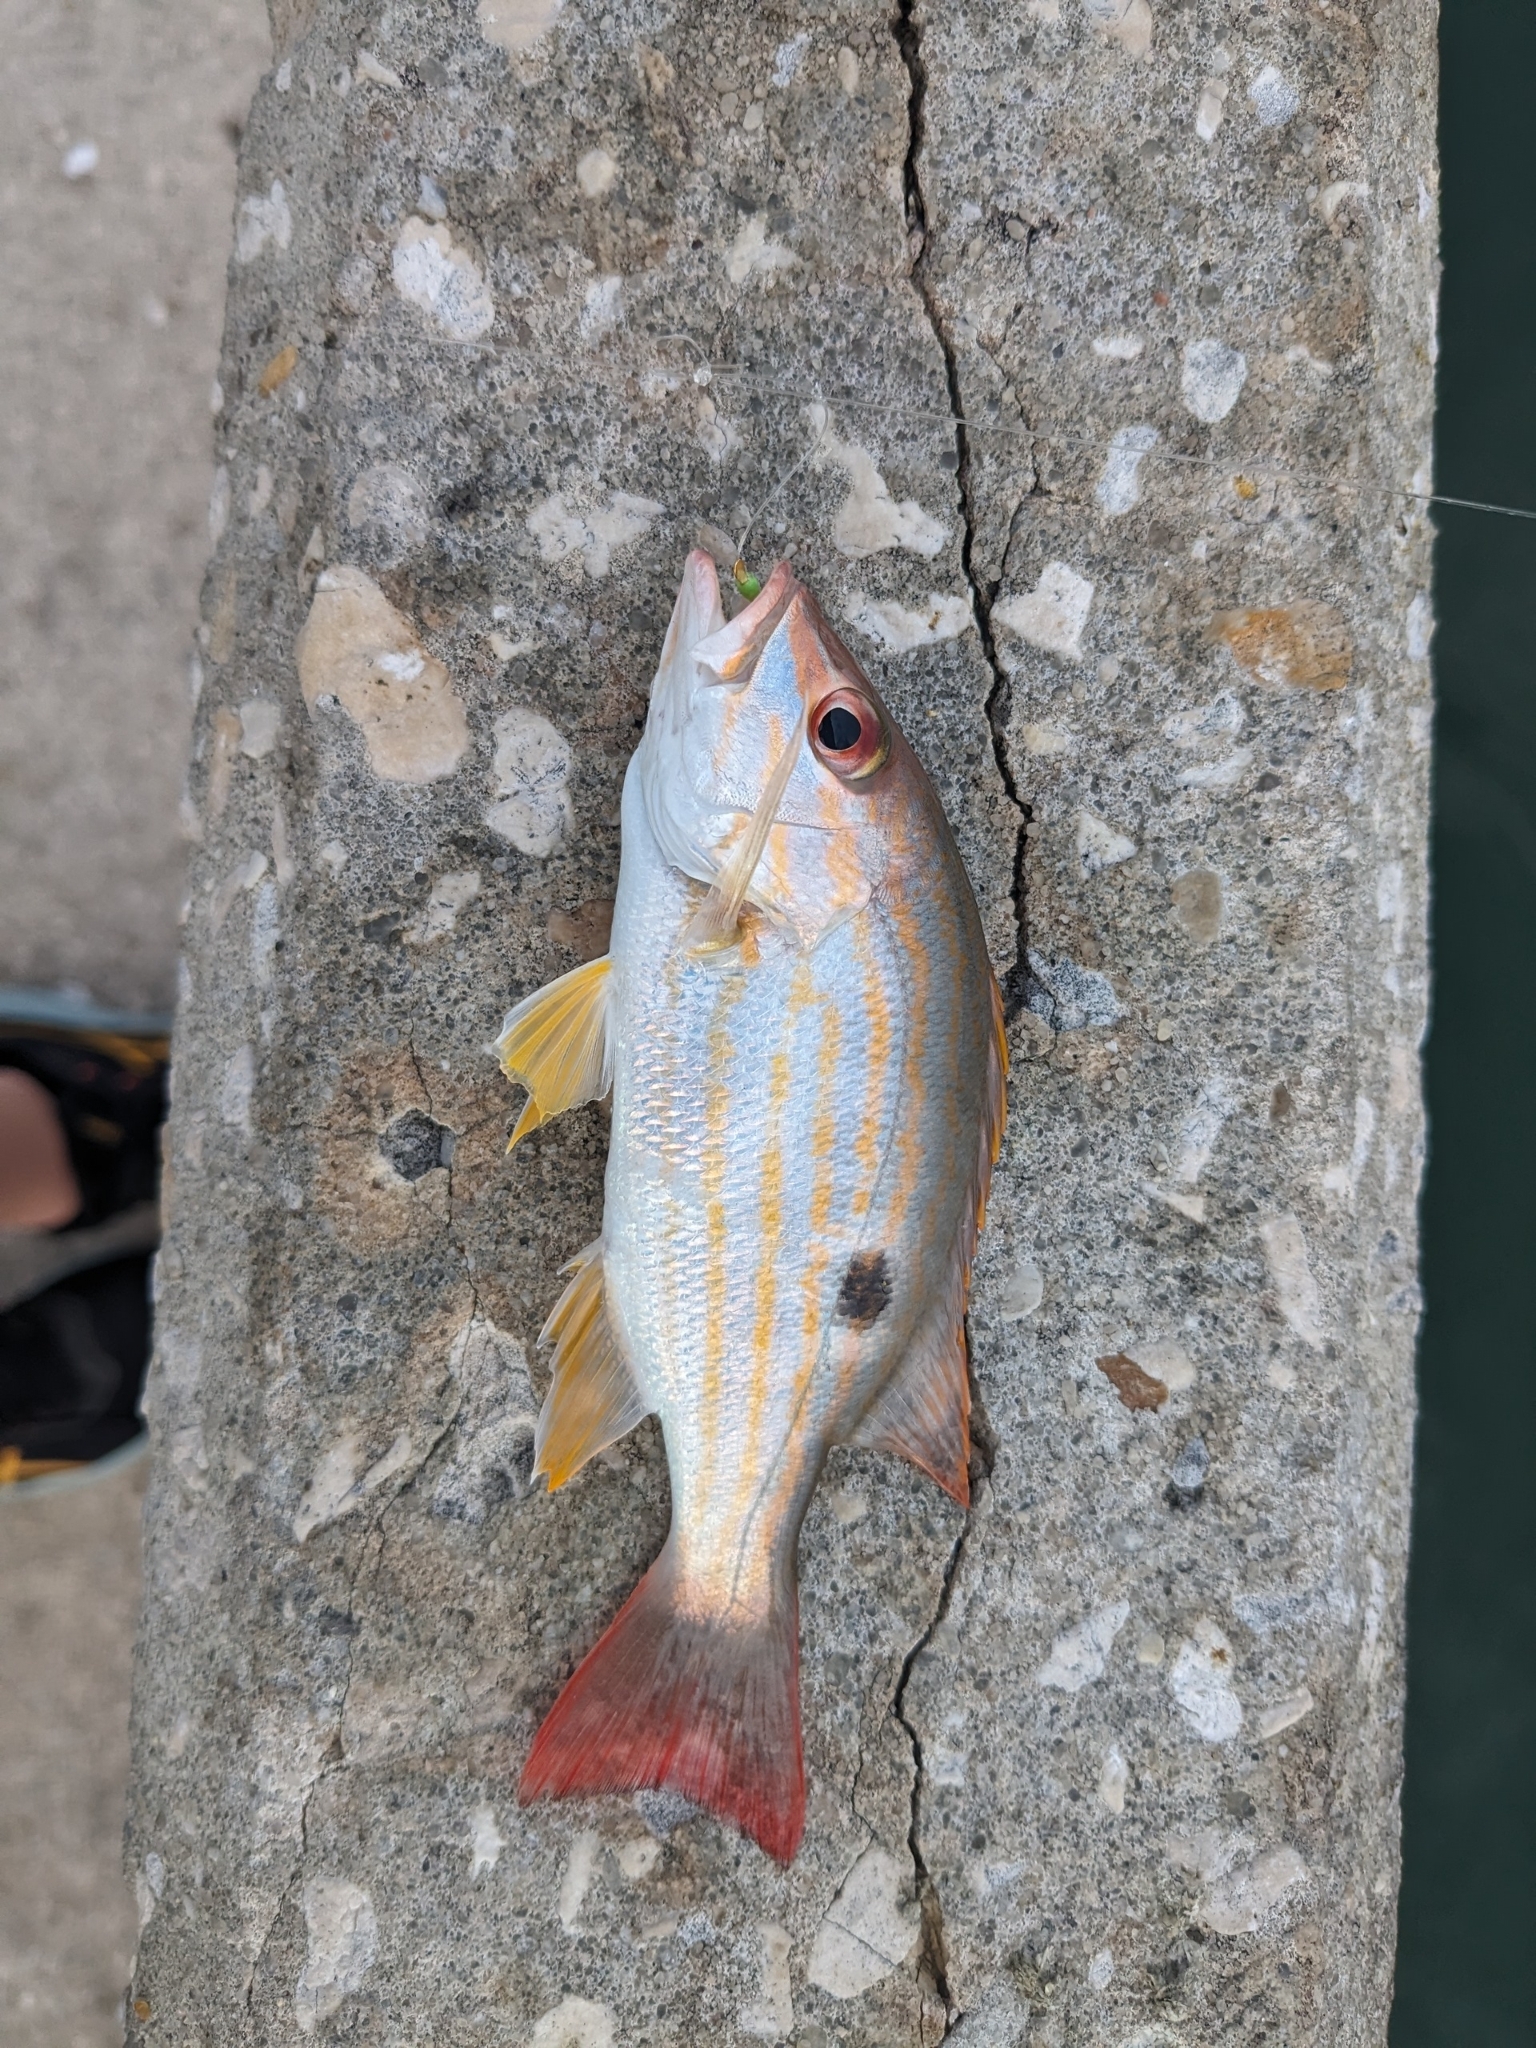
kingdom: Animalia
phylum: Chordata
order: Perciformes
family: Lutjanidae
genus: Lutjanus
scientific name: Lutjanus synagris
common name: Lane snapper
